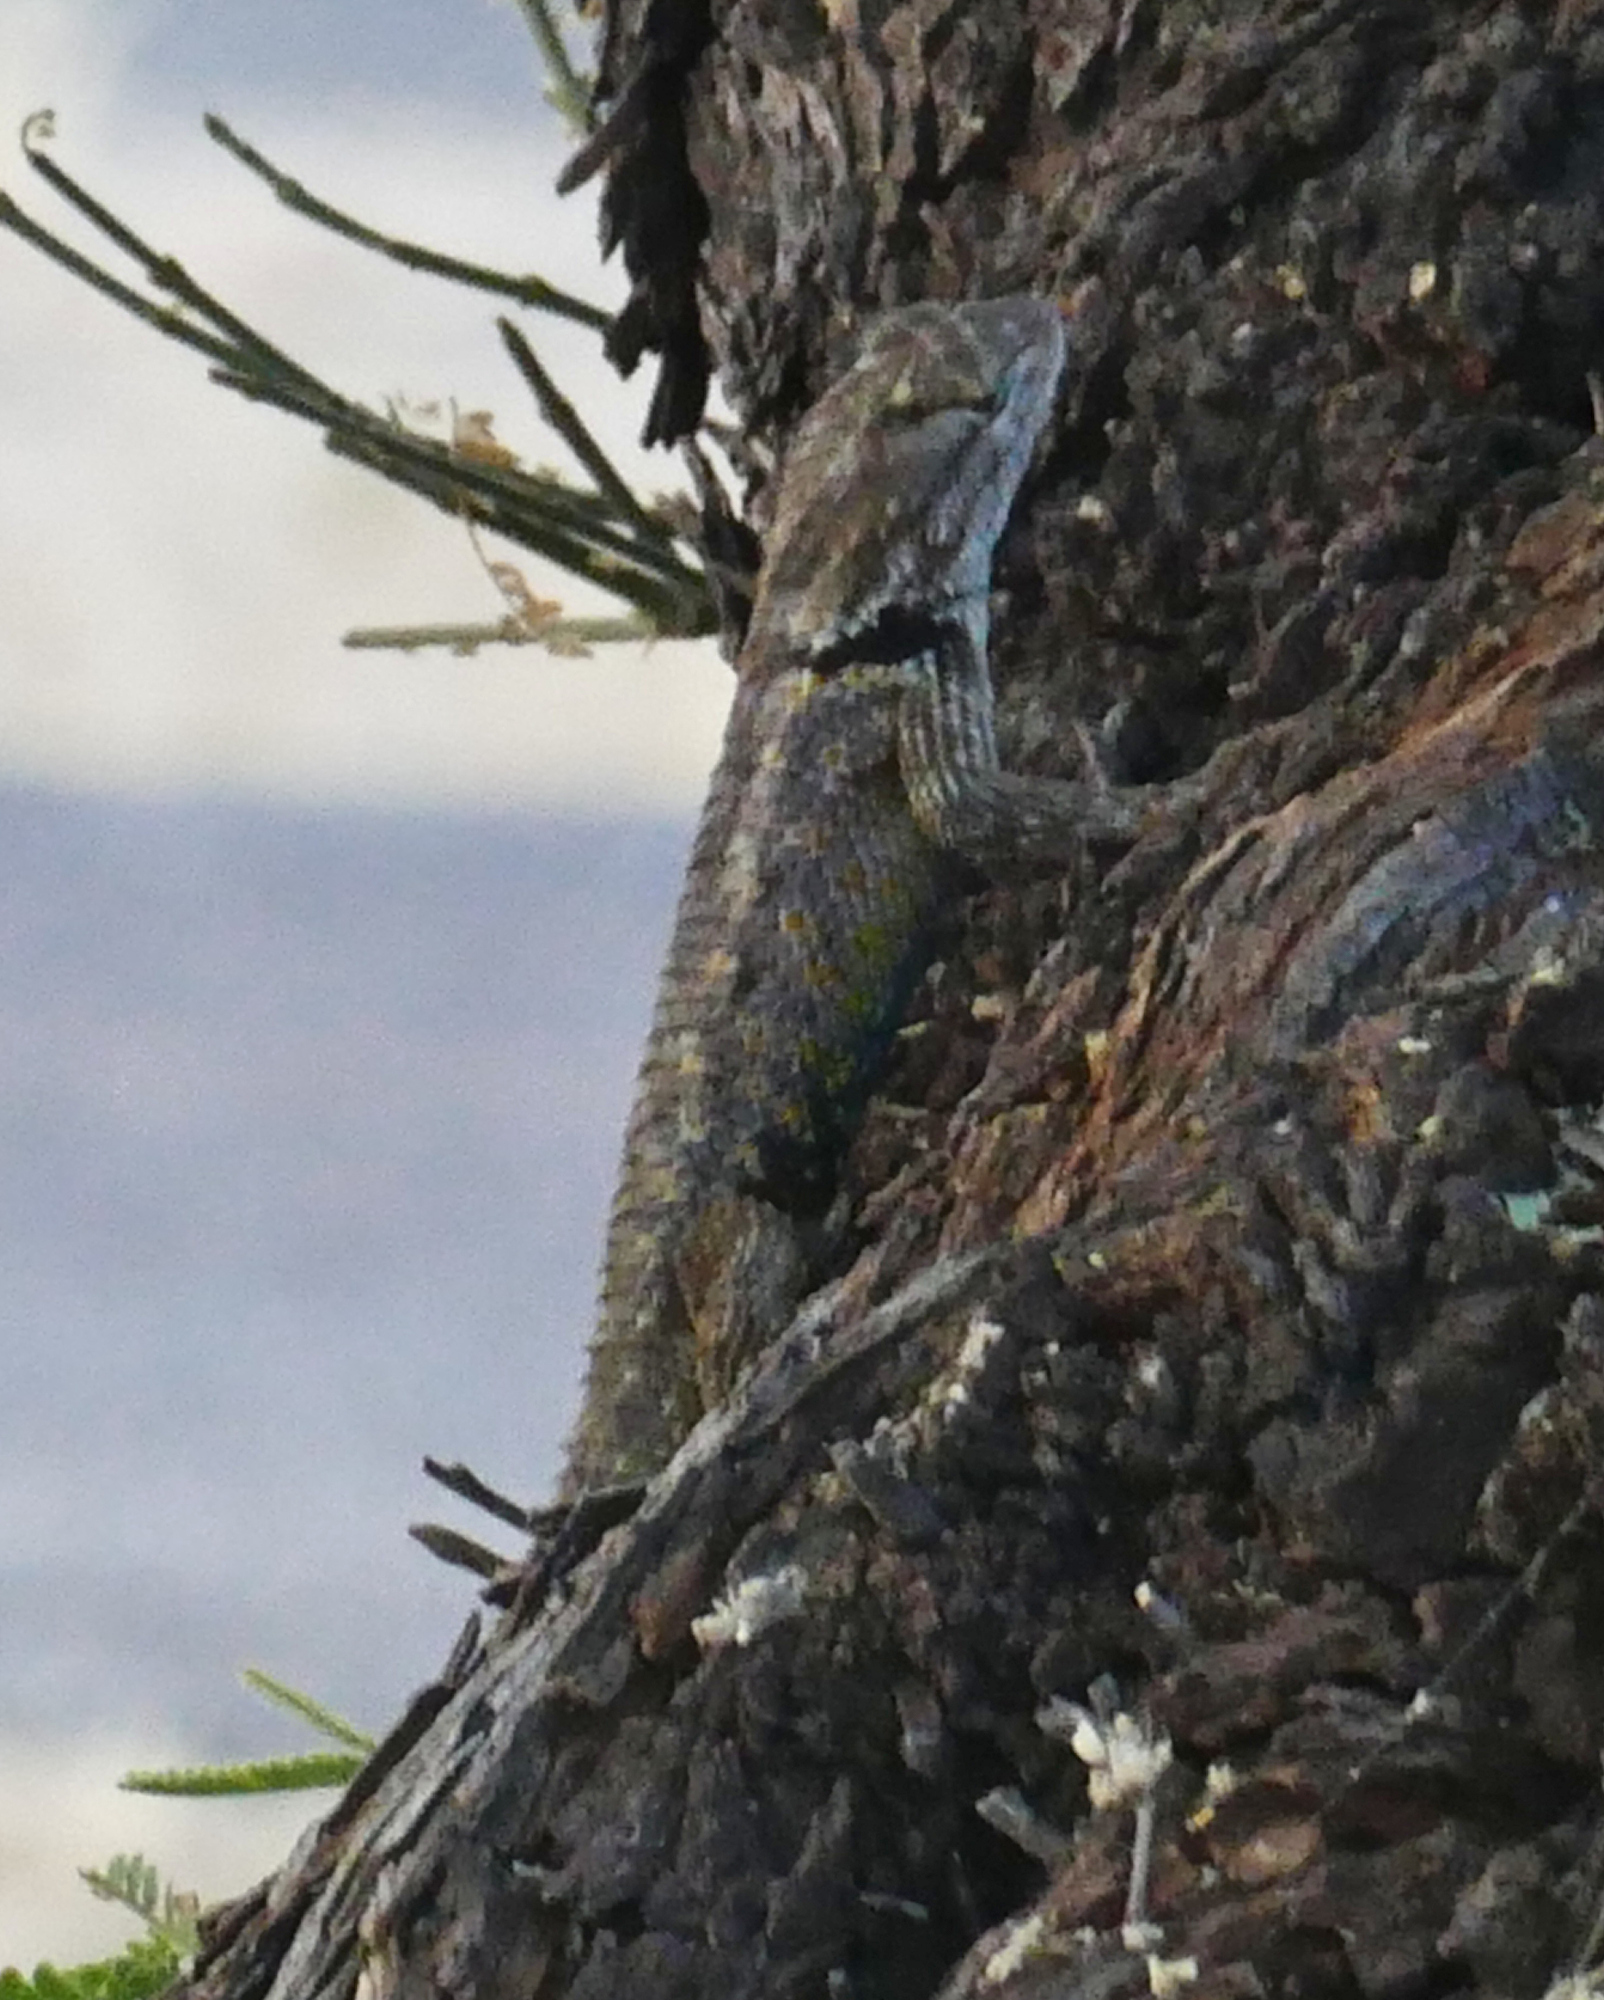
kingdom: Animalia
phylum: Chordata
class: Squamata
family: Phrynosomatidae
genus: Sceloporus
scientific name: Sceloporus magister
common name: Desert spiny lizard
